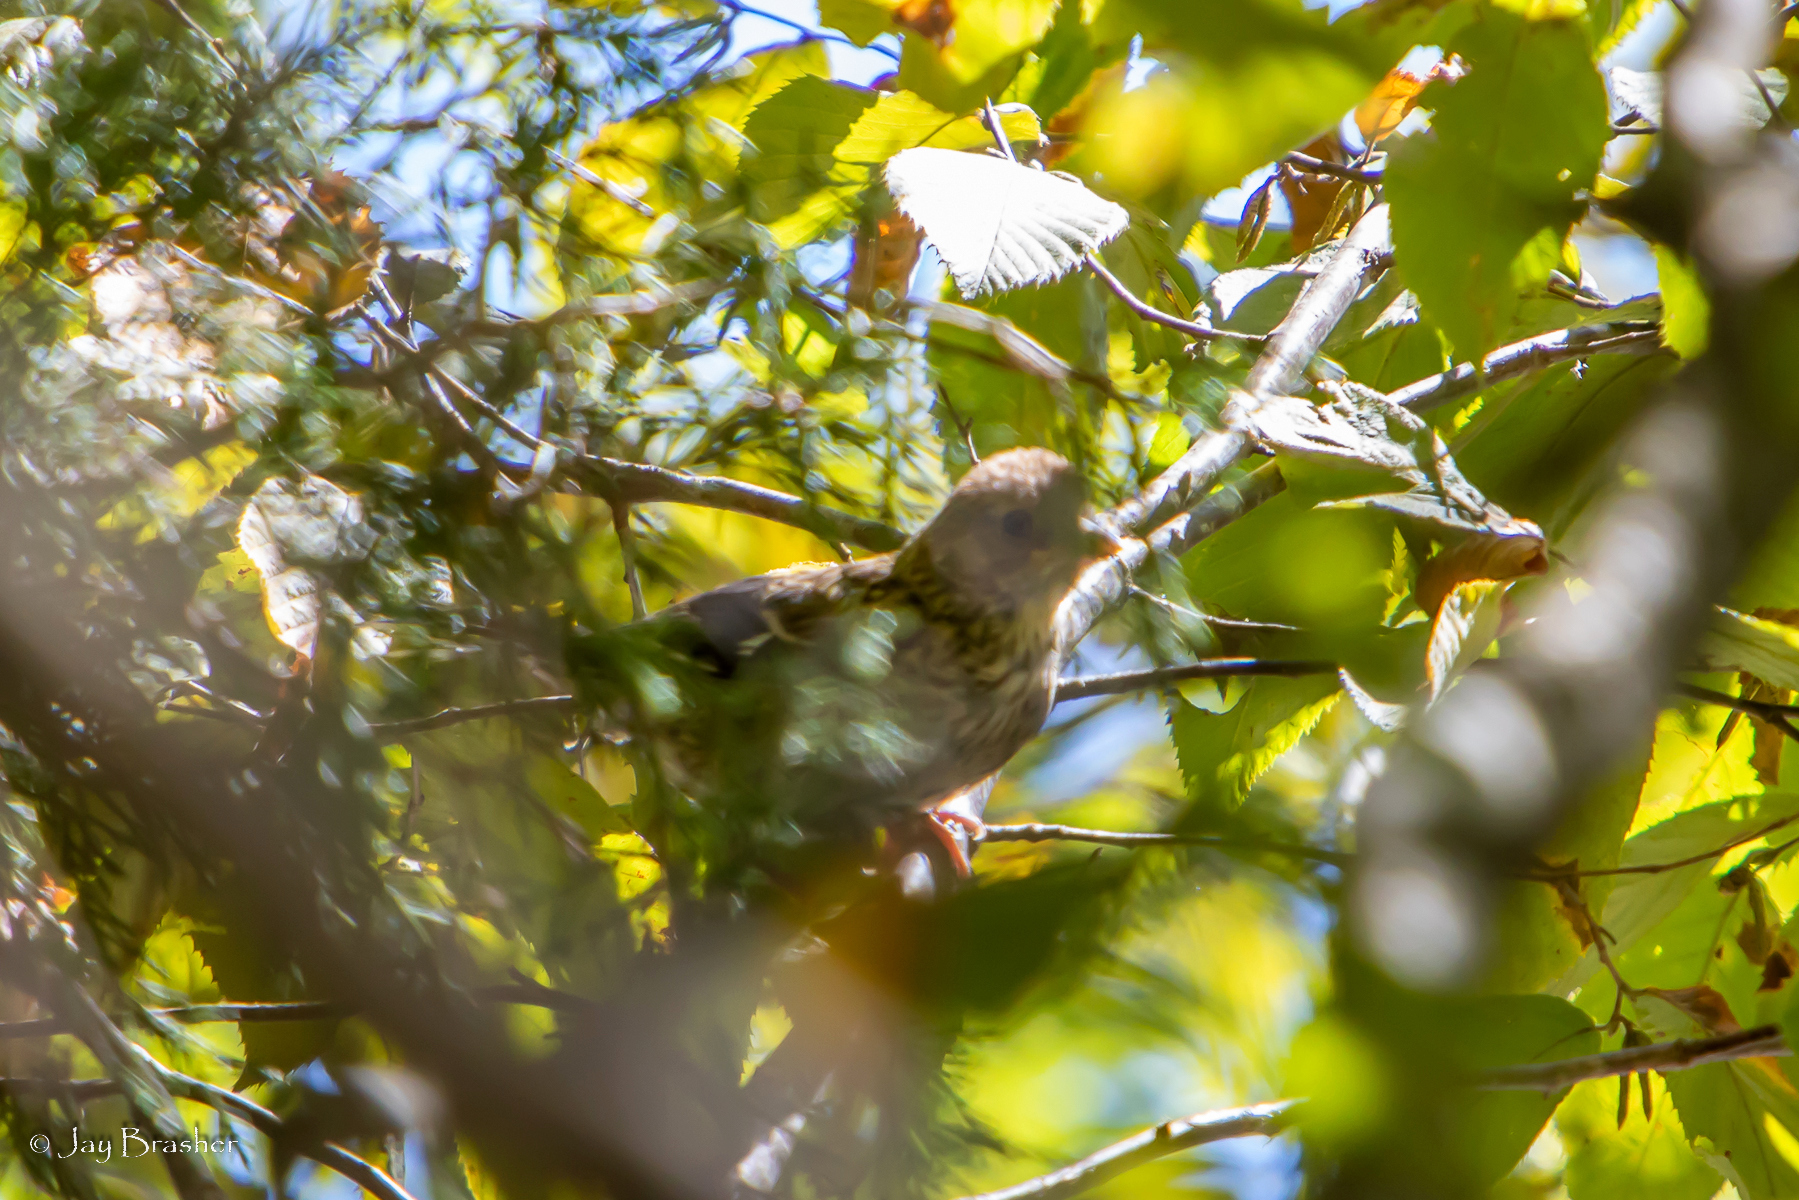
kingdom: Animalia
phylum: Chordata
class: Aves
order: Passeriformes
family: Passerellidae
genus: Pipilo
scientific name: Pipilo erythrophthalmus
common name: Eastern towhee
